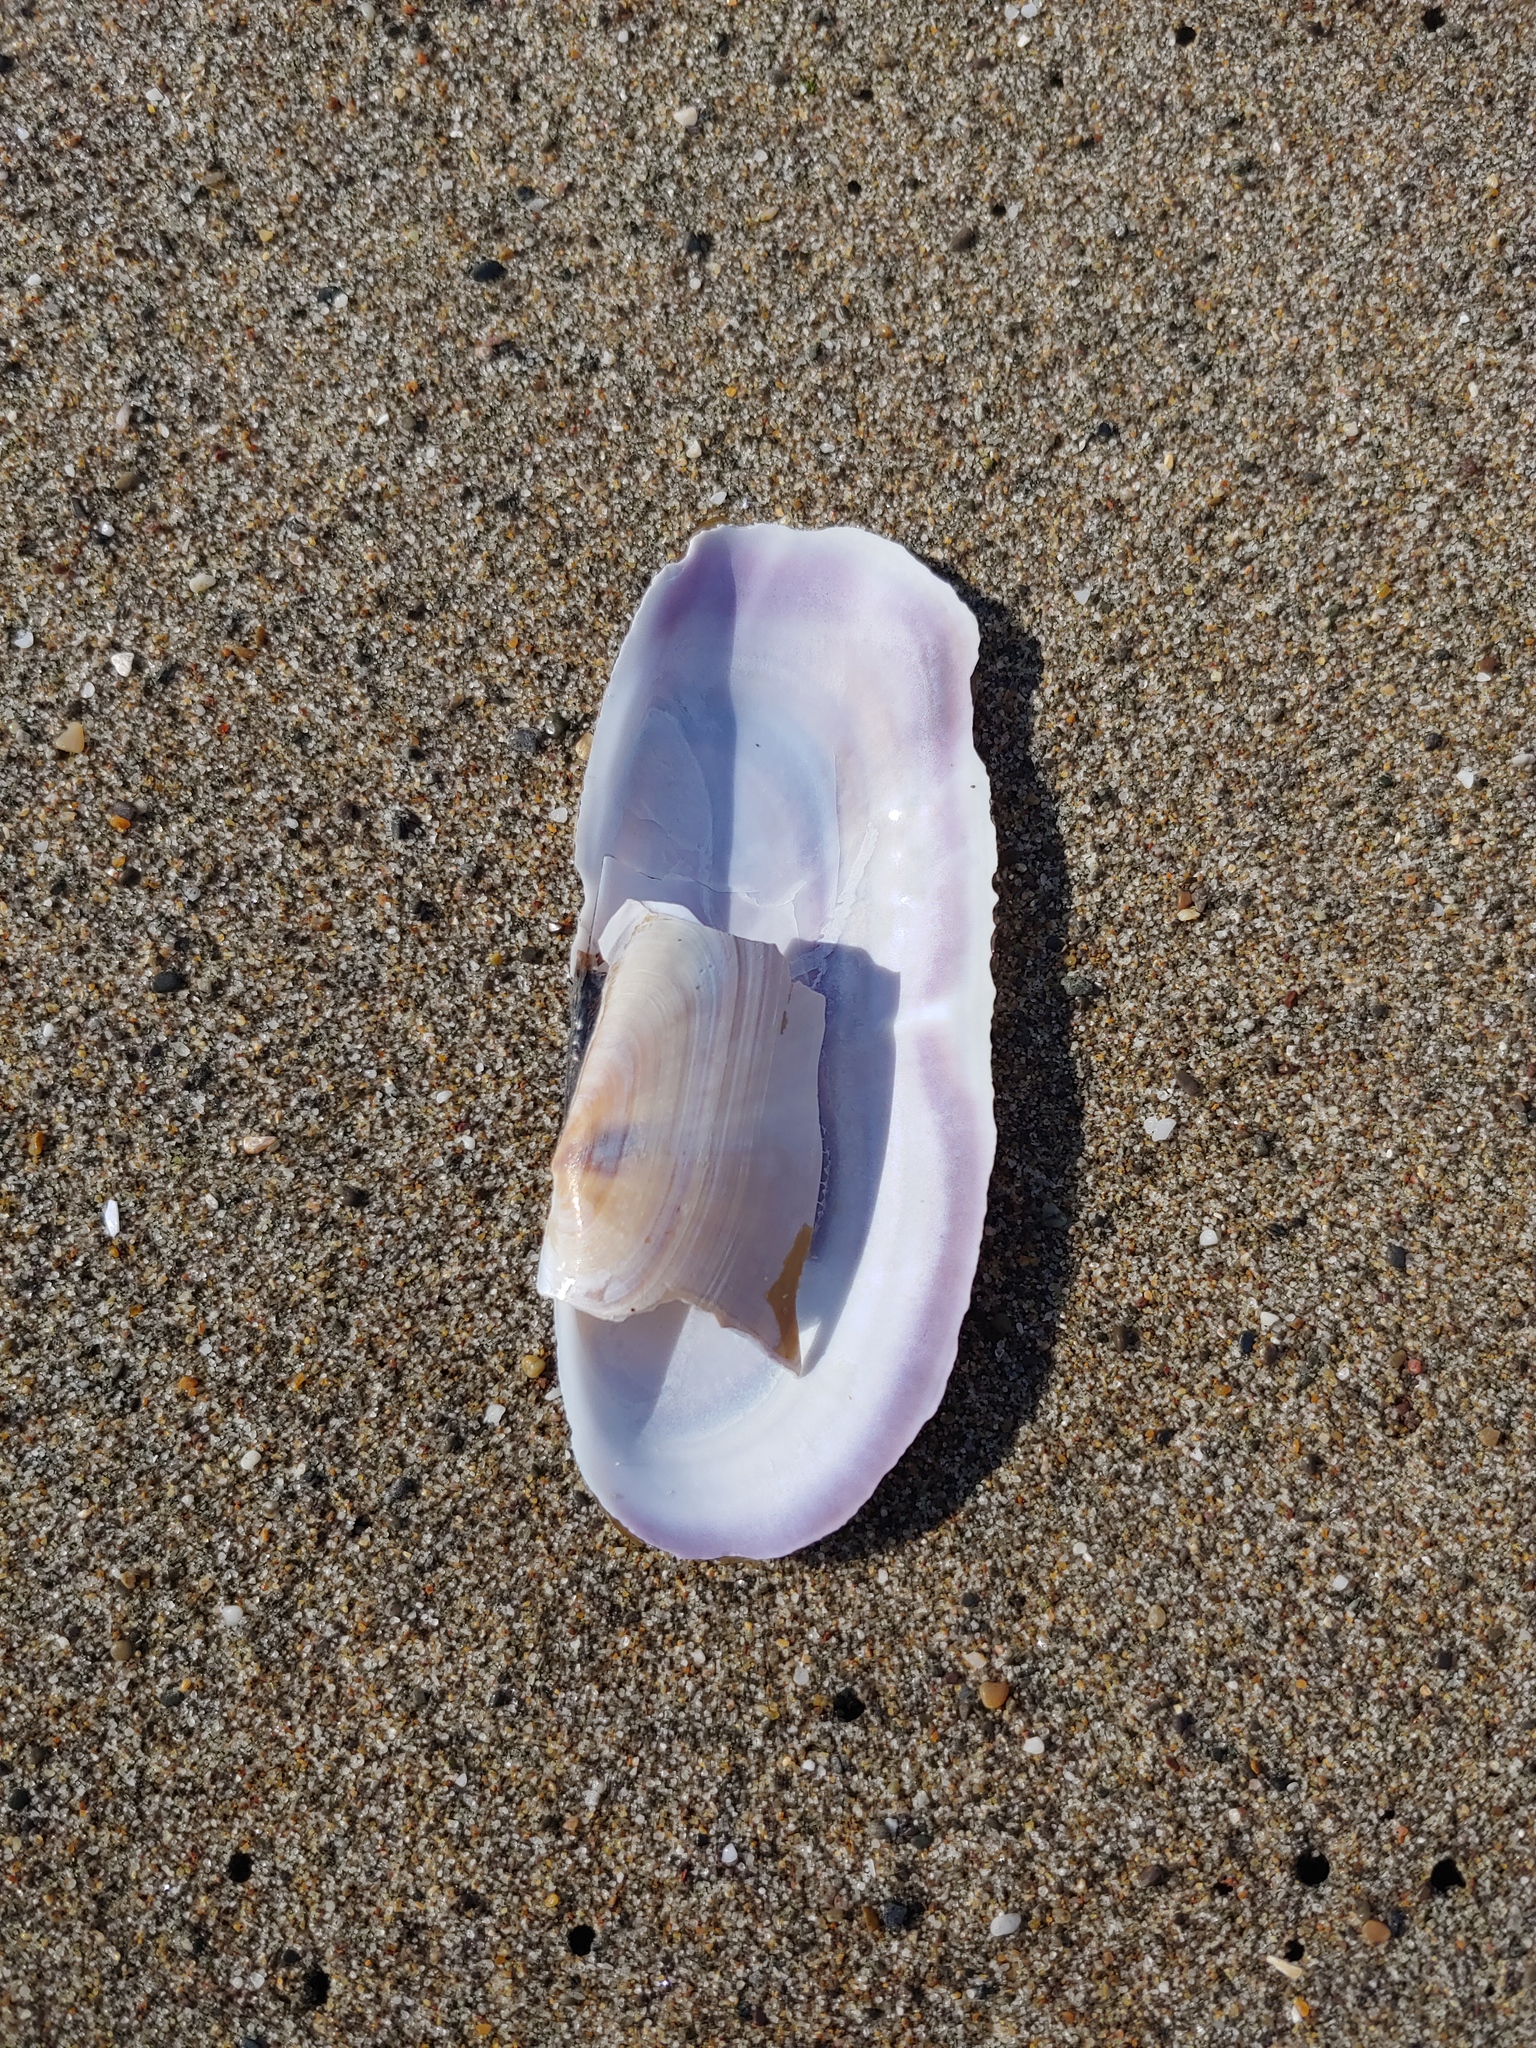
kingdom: Animalia
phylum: Mollusca
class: Bivalvia
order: Adapedonta
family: Pharidae
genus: Siliqua
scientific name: Siliqua patula
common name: Pacific razor clam
